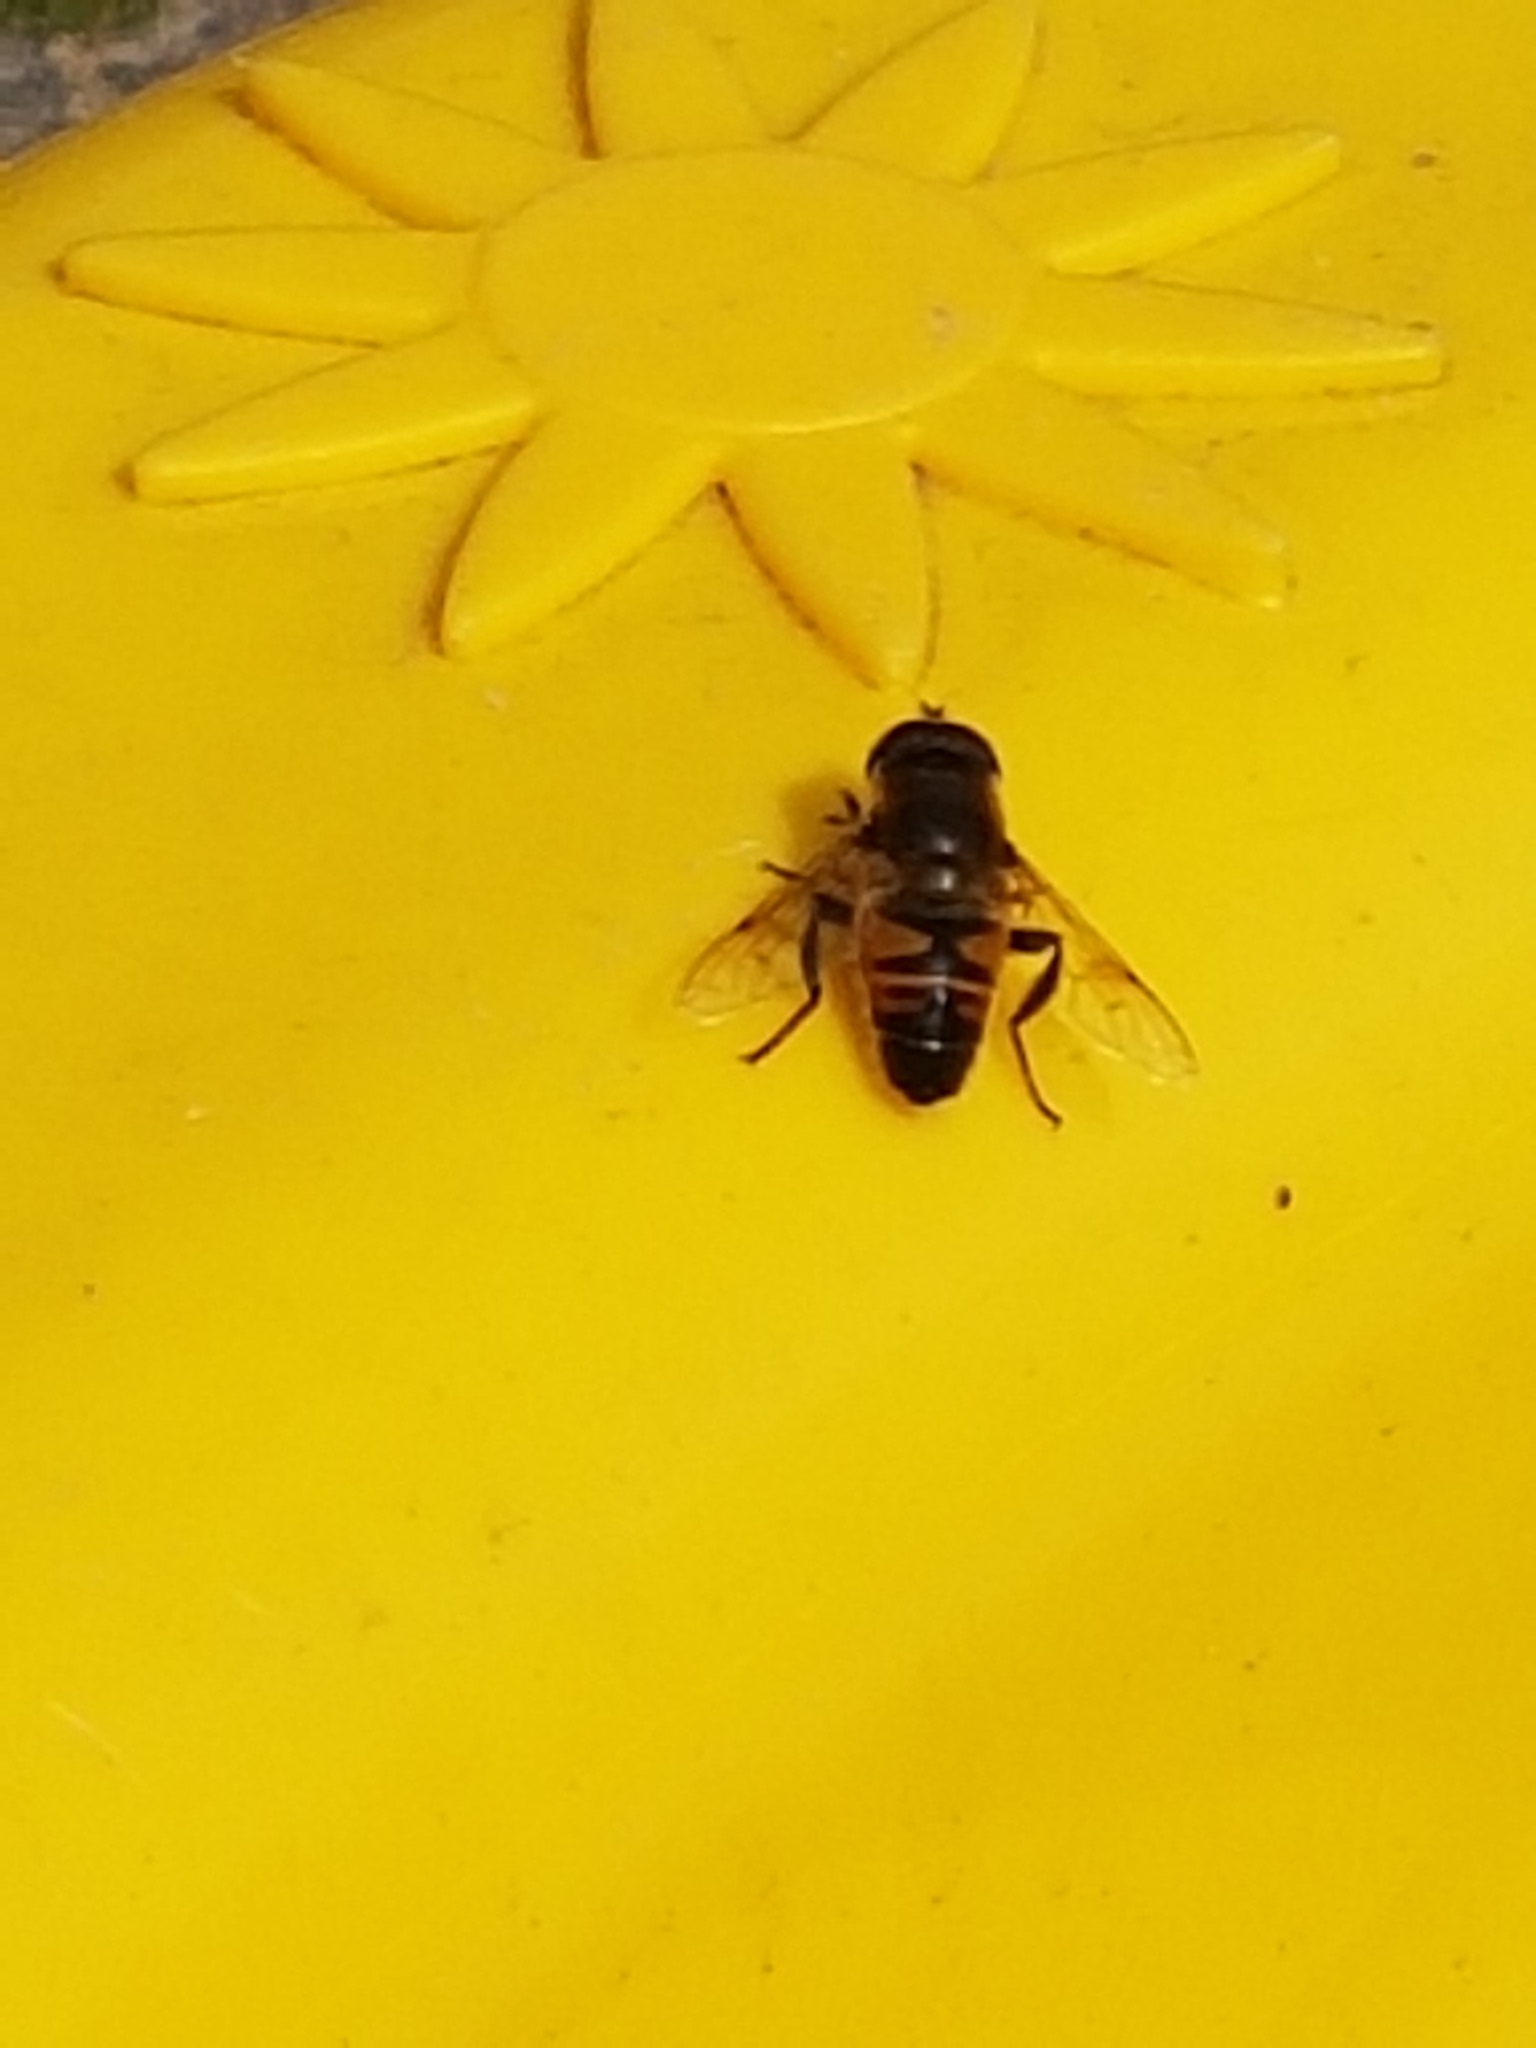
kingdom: Animalia
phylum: Arthropoda
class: Insecta
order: Diptera
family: Syrphidae
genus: Eristalis
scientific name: Eristalis tenax
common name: Drone fly
